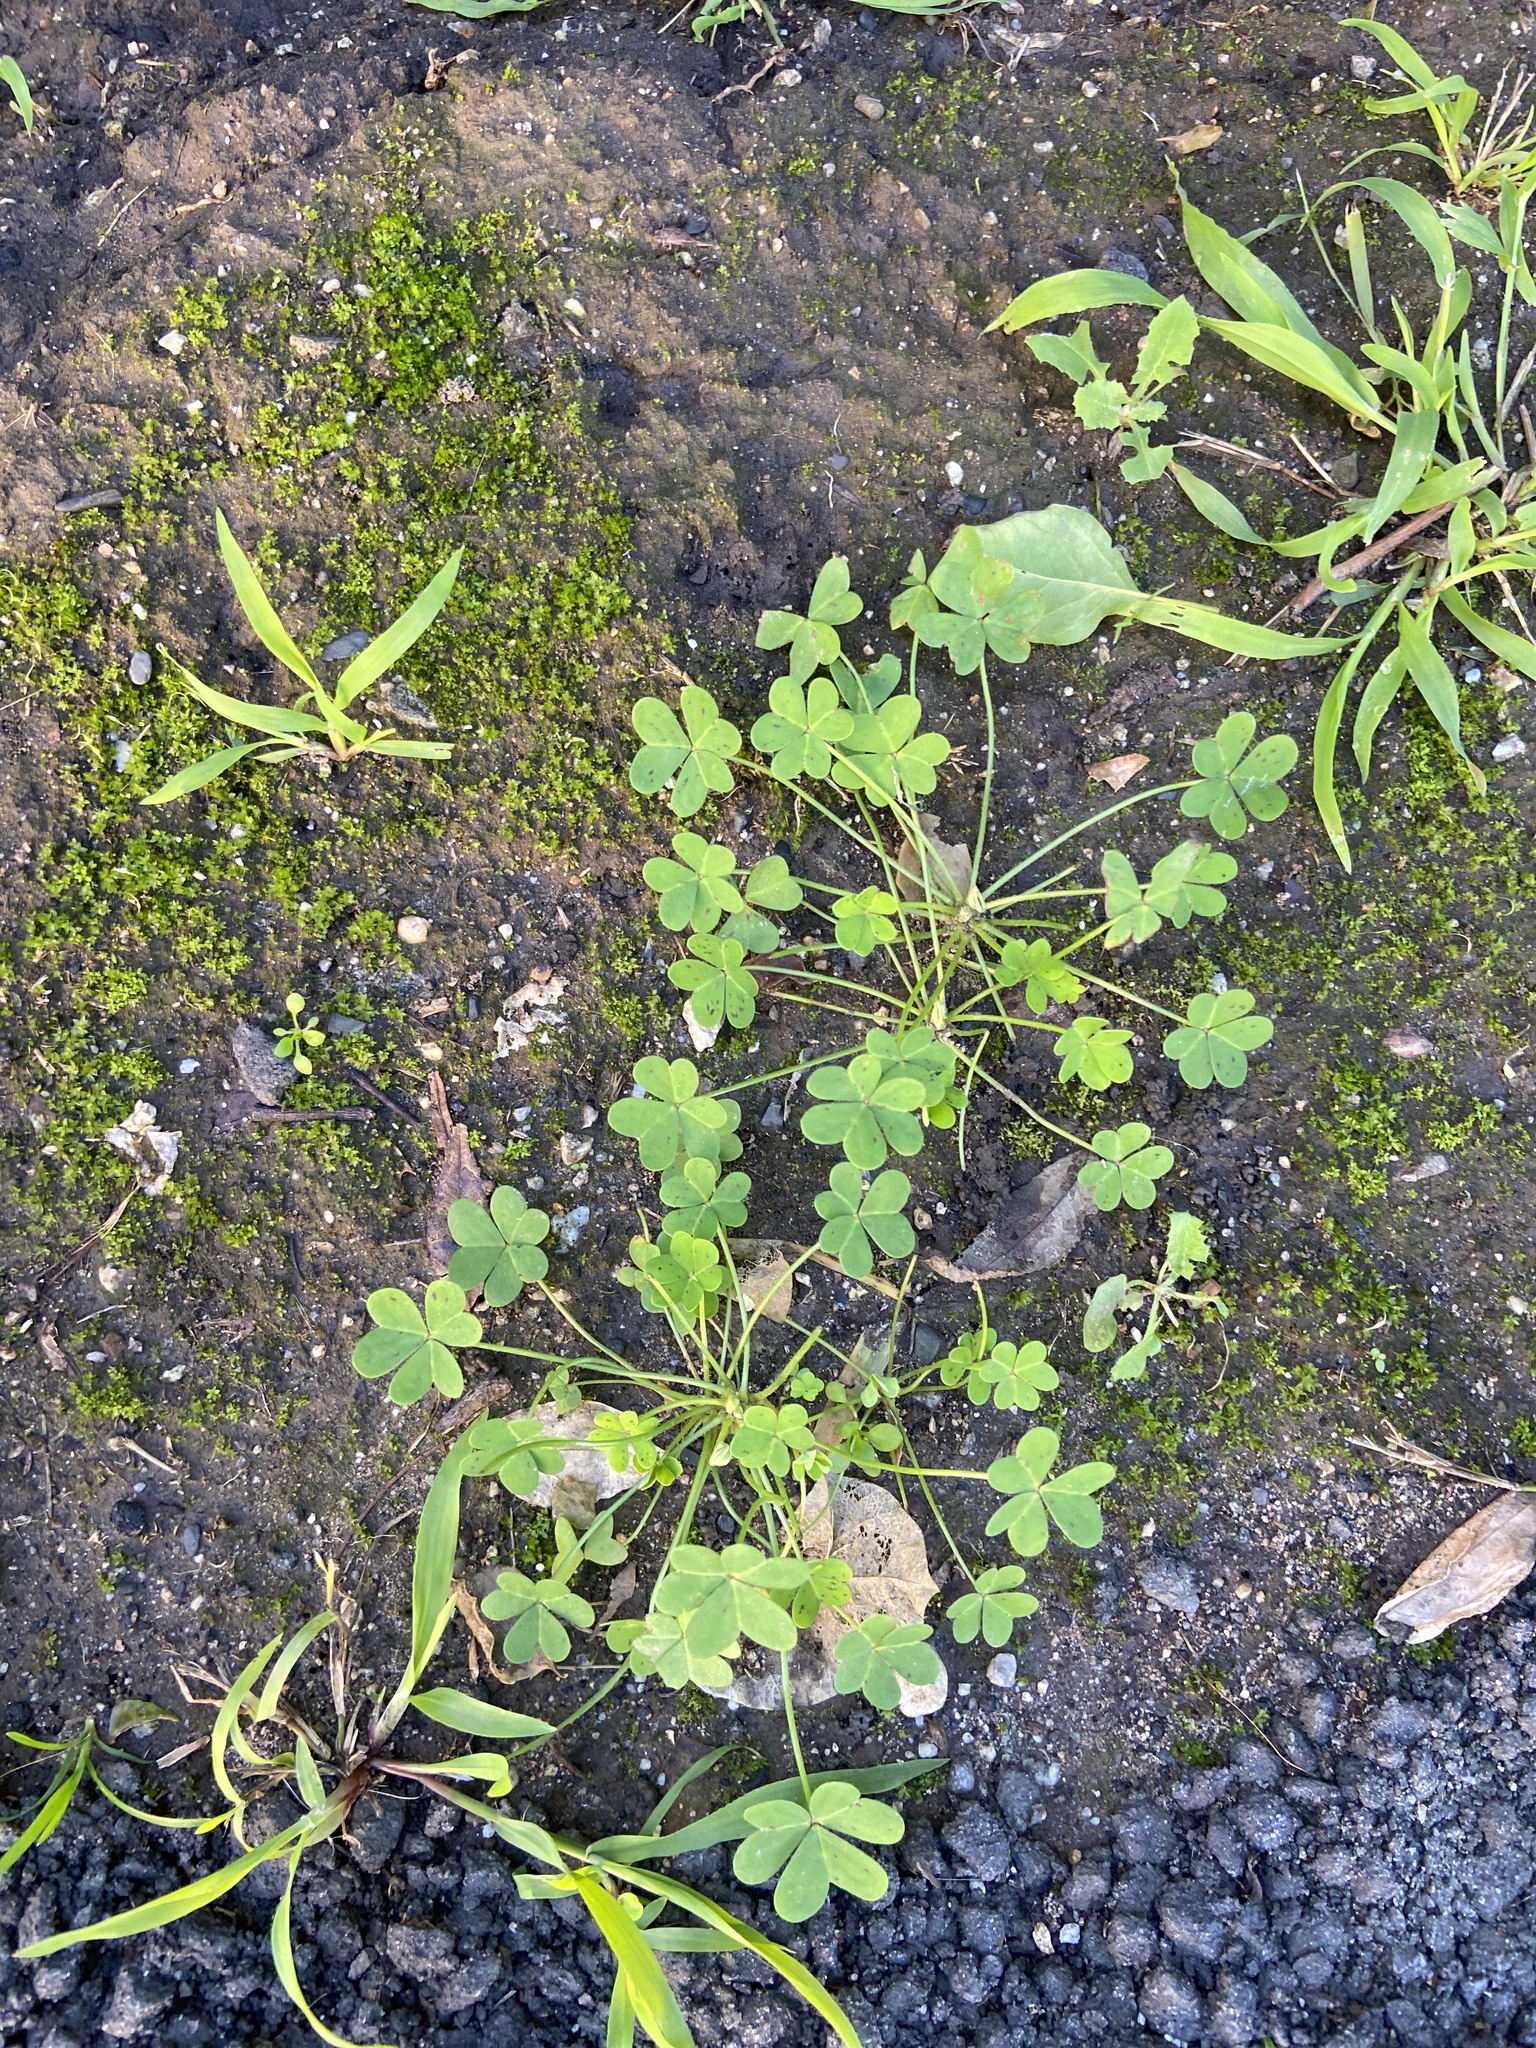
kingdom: Plantae
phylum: Tracheophyta
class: Magnoliopsida
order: Oxalidales
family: Oxalidaceae
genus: Oxalis
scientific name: Oxalis pes-caprae
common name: Bermuda-buttercup
